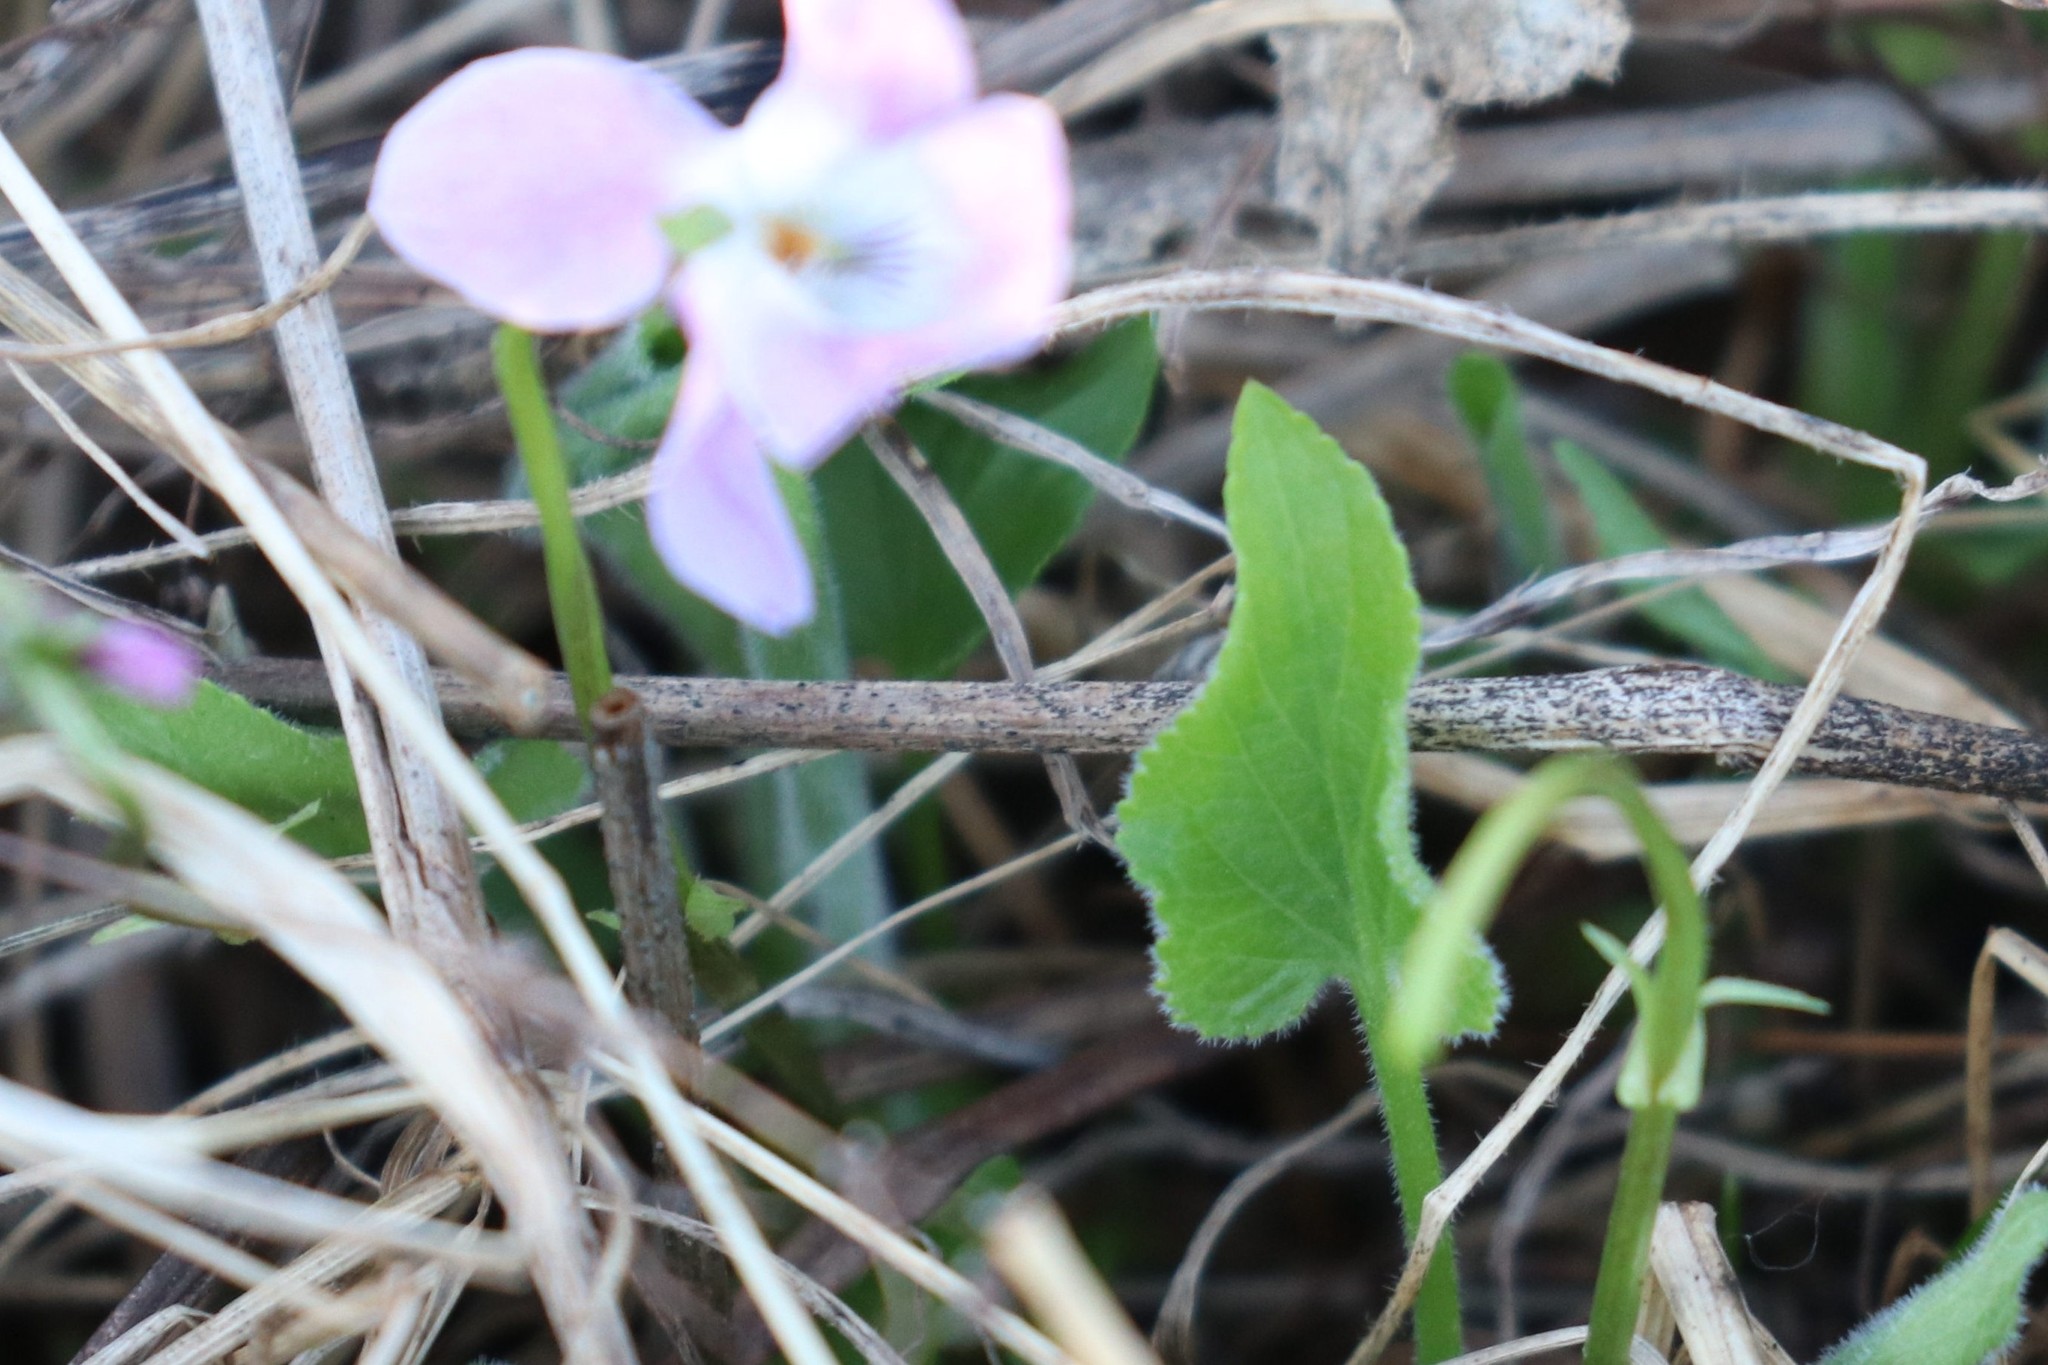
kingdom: Plantae
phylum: Tracheophyta
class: Magnoliopsida
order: Malpighiales
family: Violaceae
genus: Viola
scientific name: Viola hirta
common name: Hairy violet
